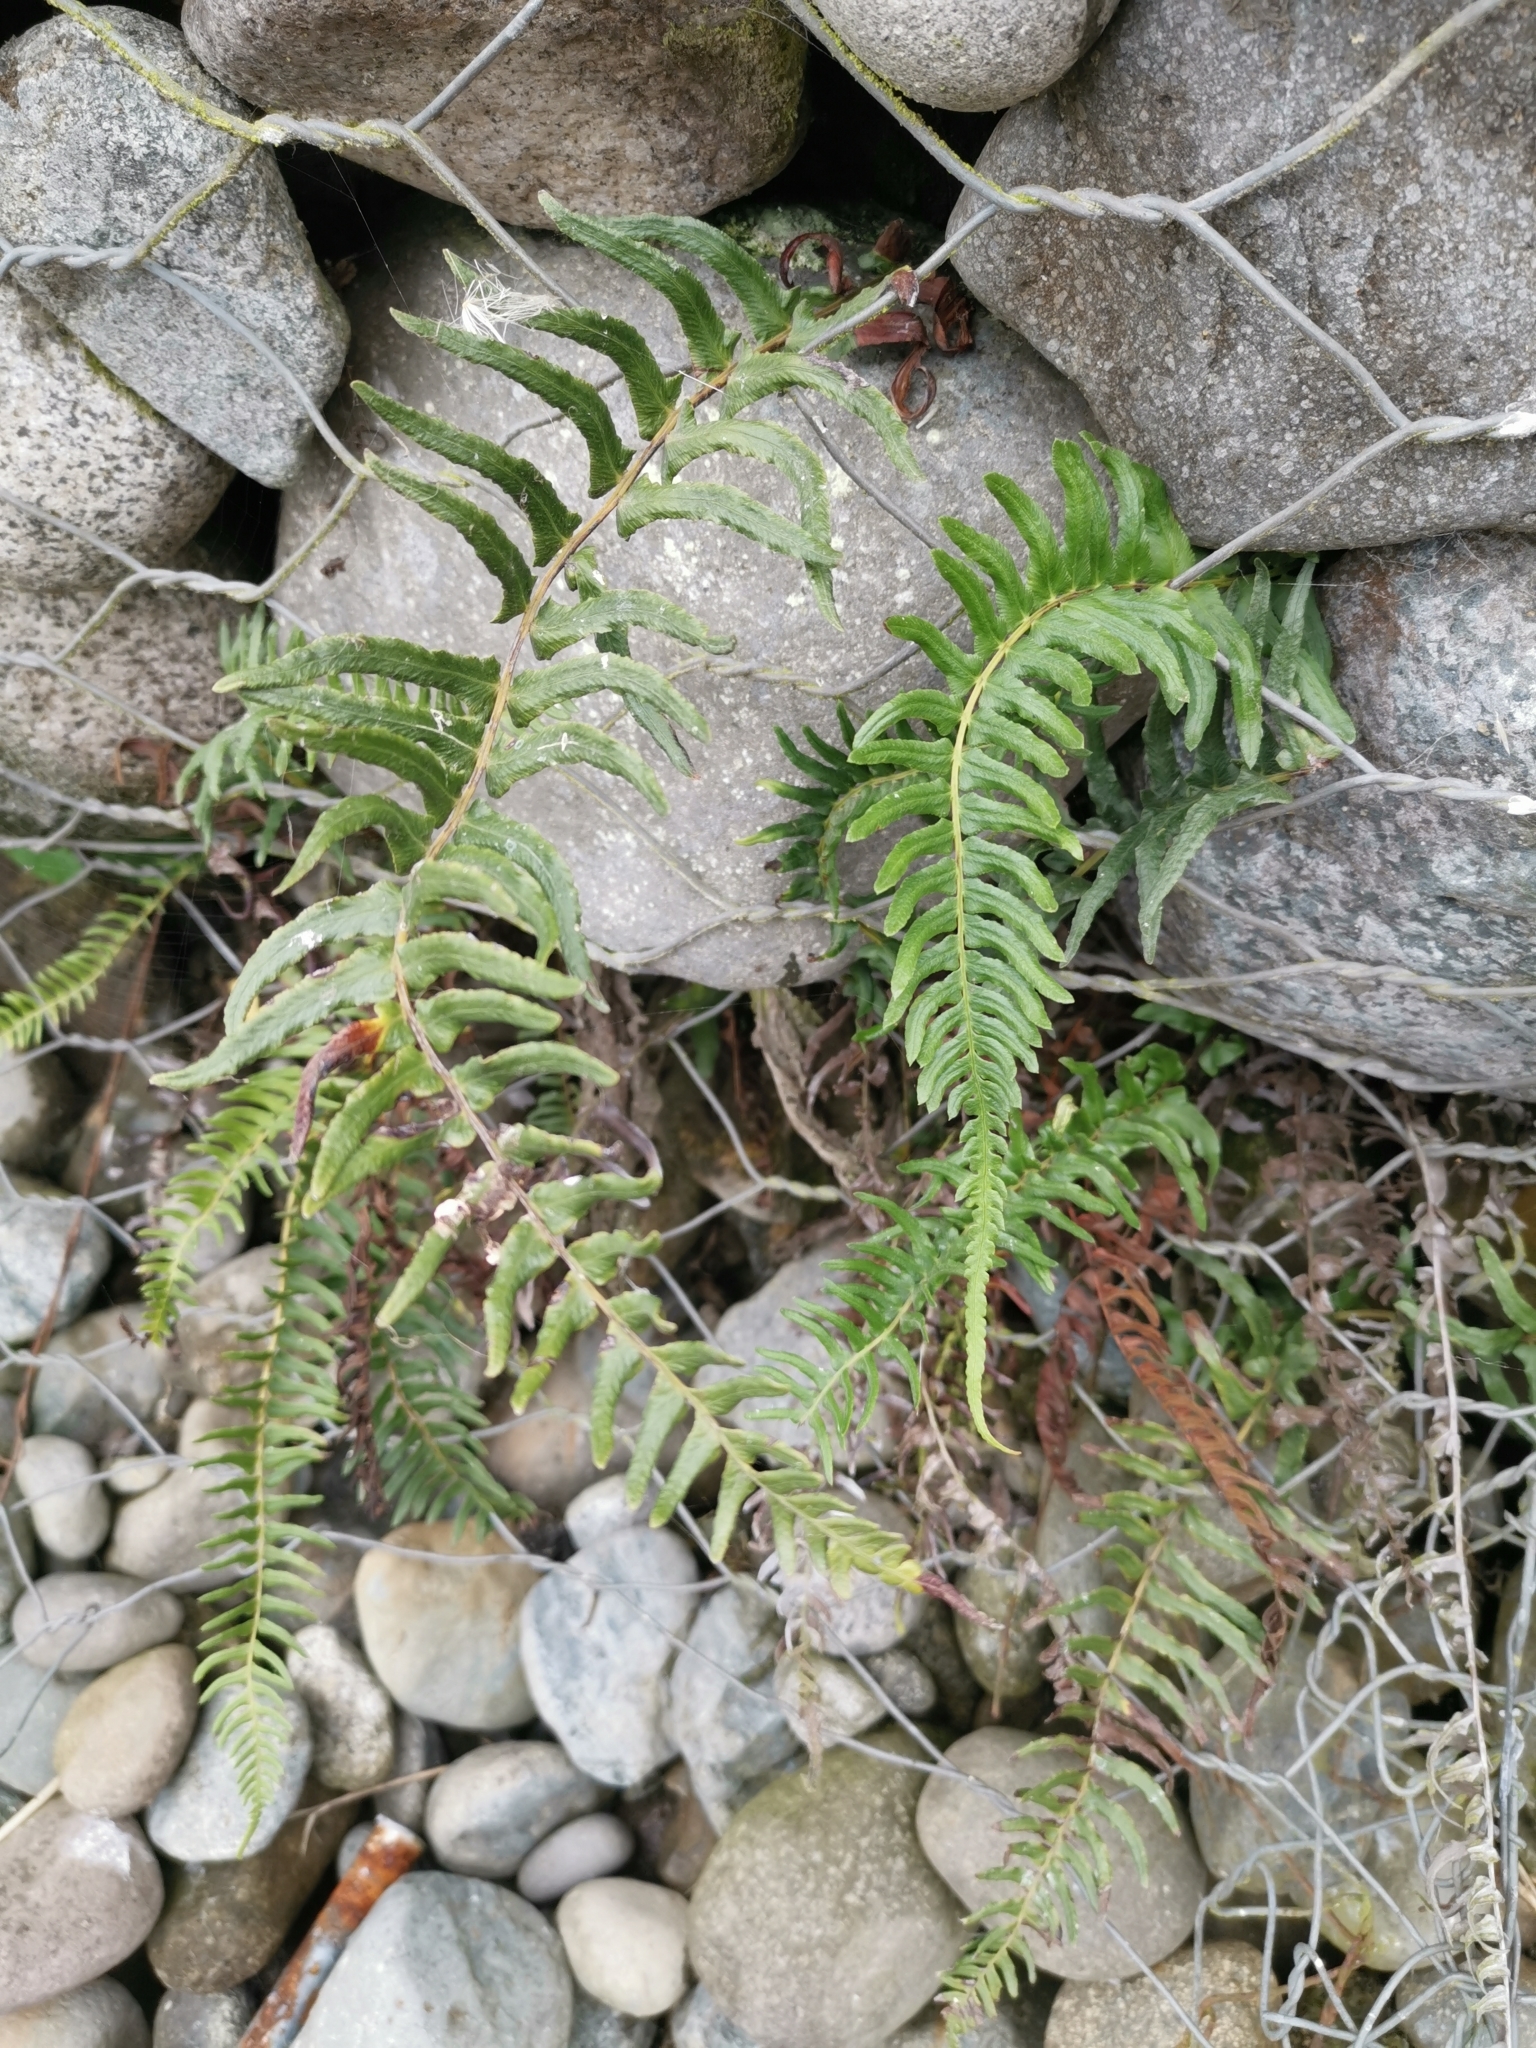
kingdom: Plantae
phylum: Tracheophyta
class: Polypodiopsida
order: Polypodiales
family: Blechnaceae
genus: Blechnum
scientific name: Blechnum hastatum
